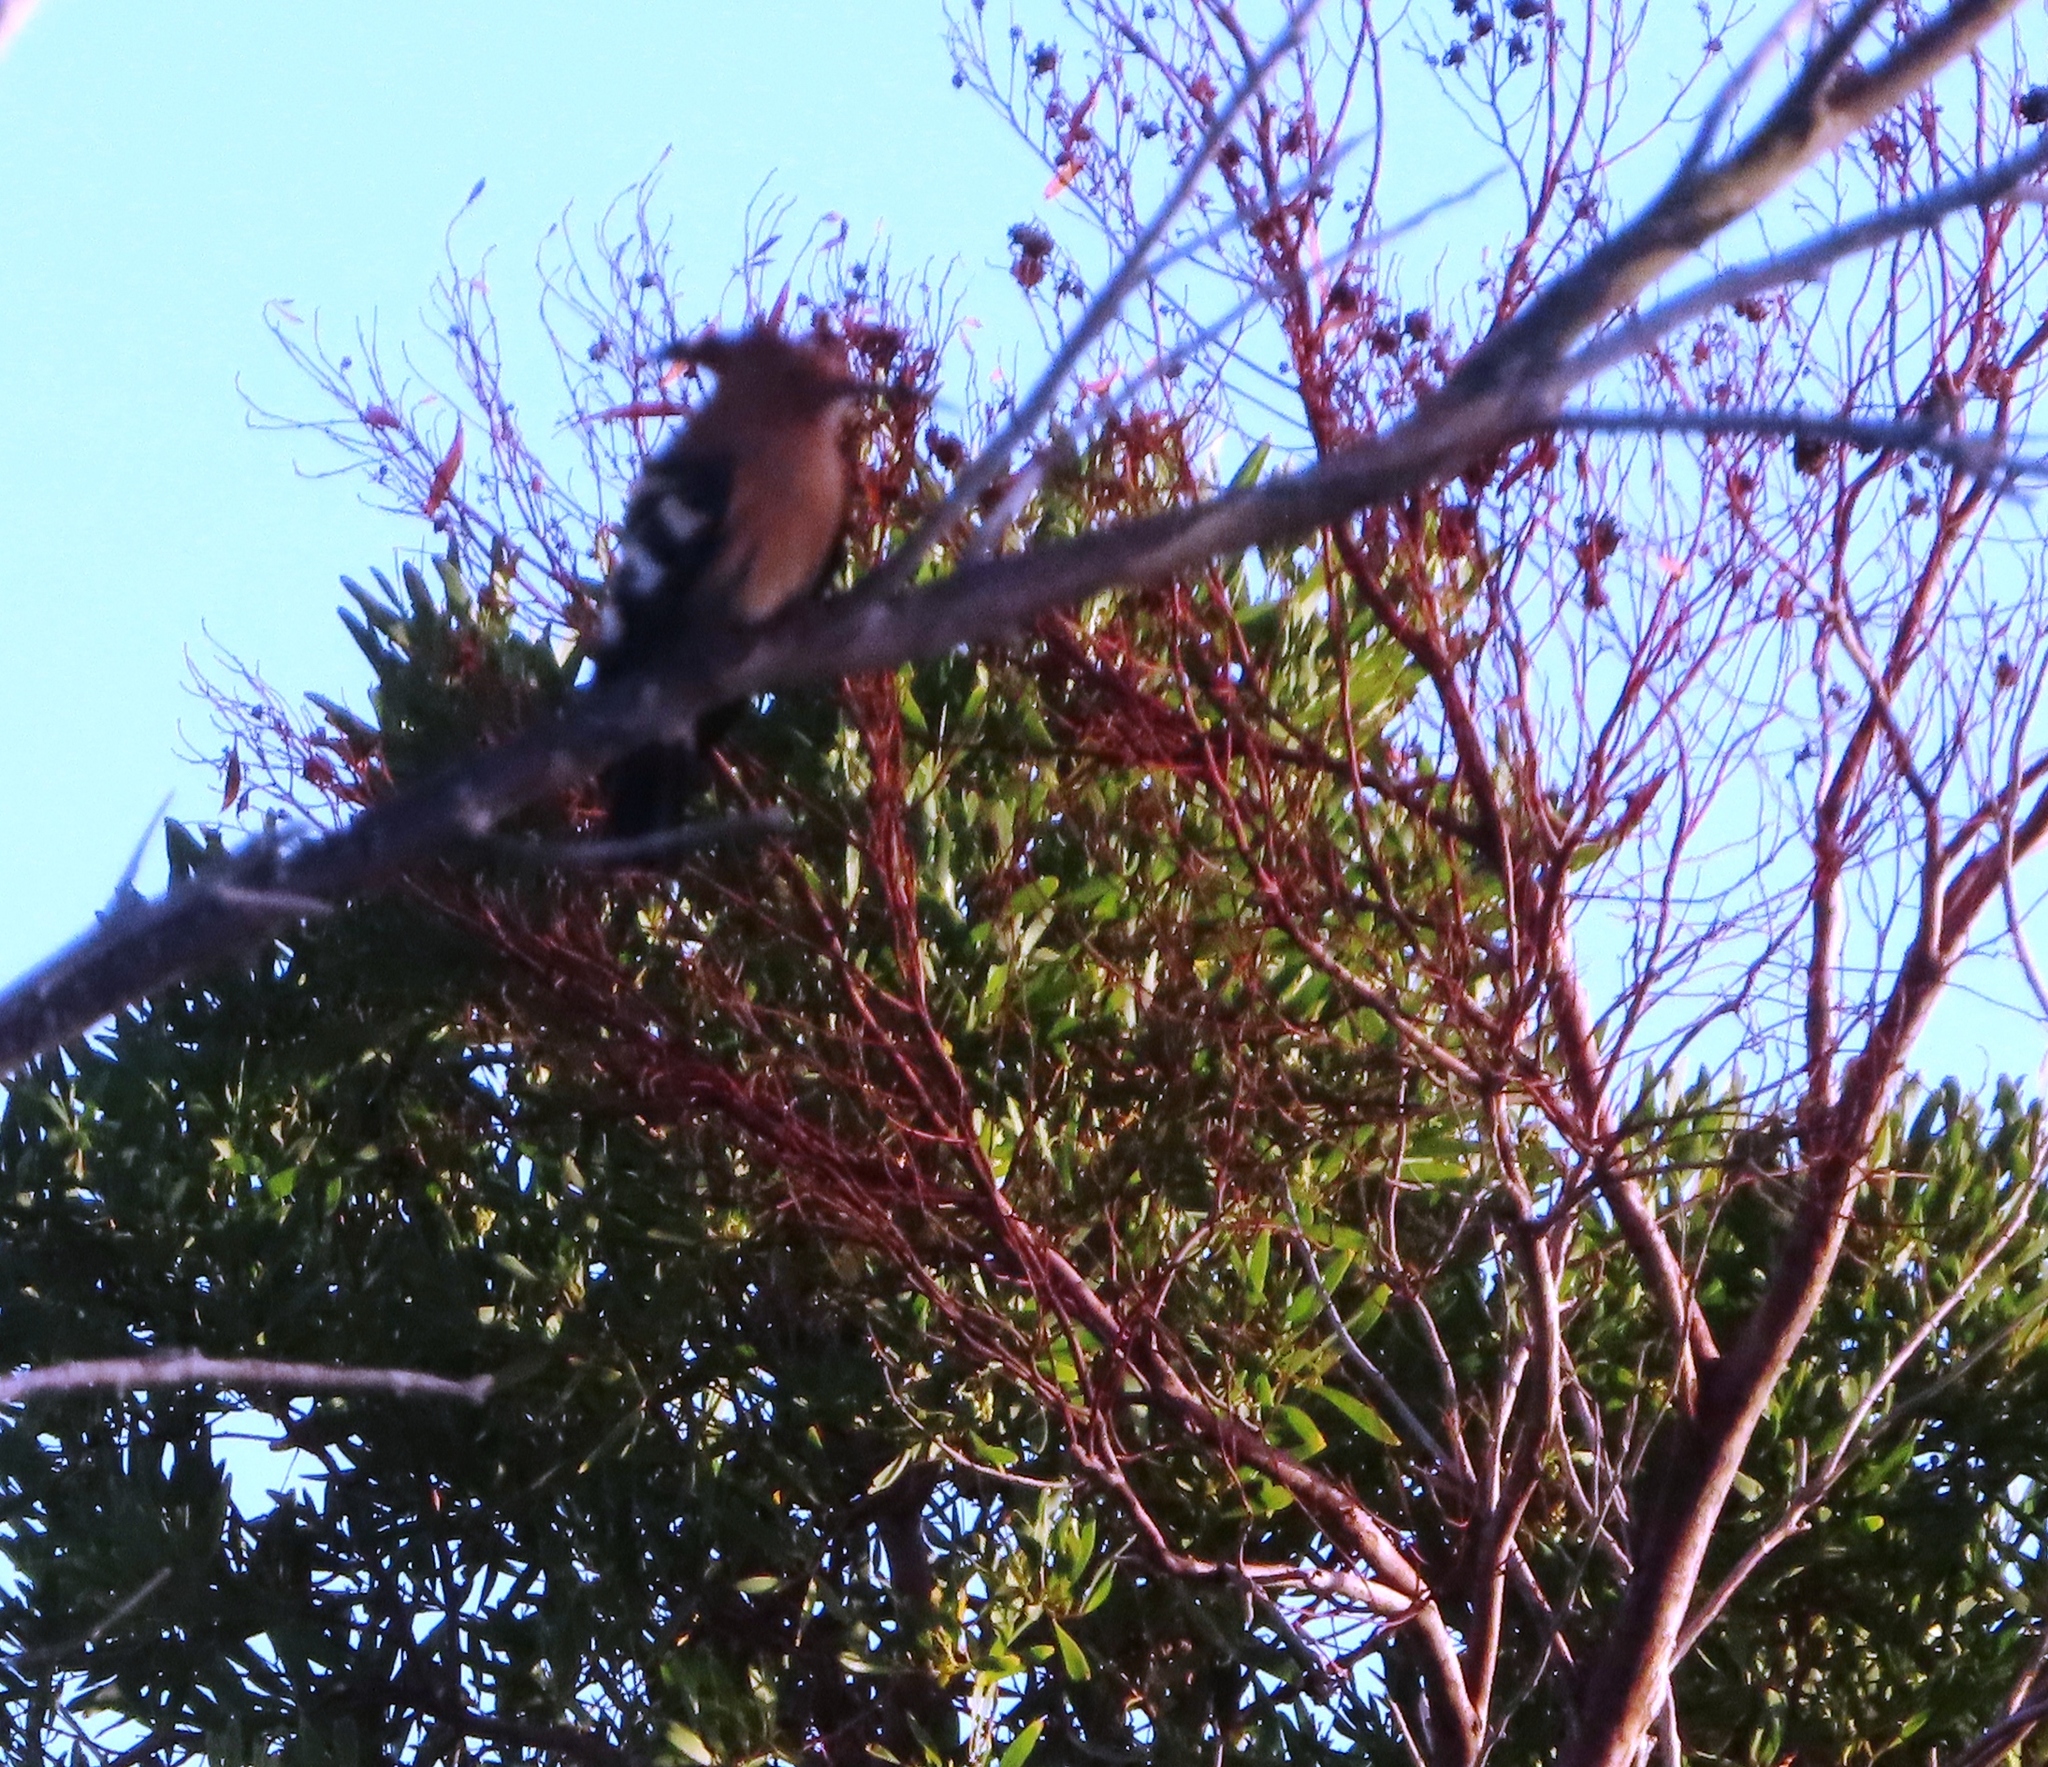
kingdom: Animalia
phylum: Chordata
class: Aves
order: Bucerotiformes
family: Upupidae
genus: Upupa
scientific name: Upupa epops
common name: Eurasian hoopoe
